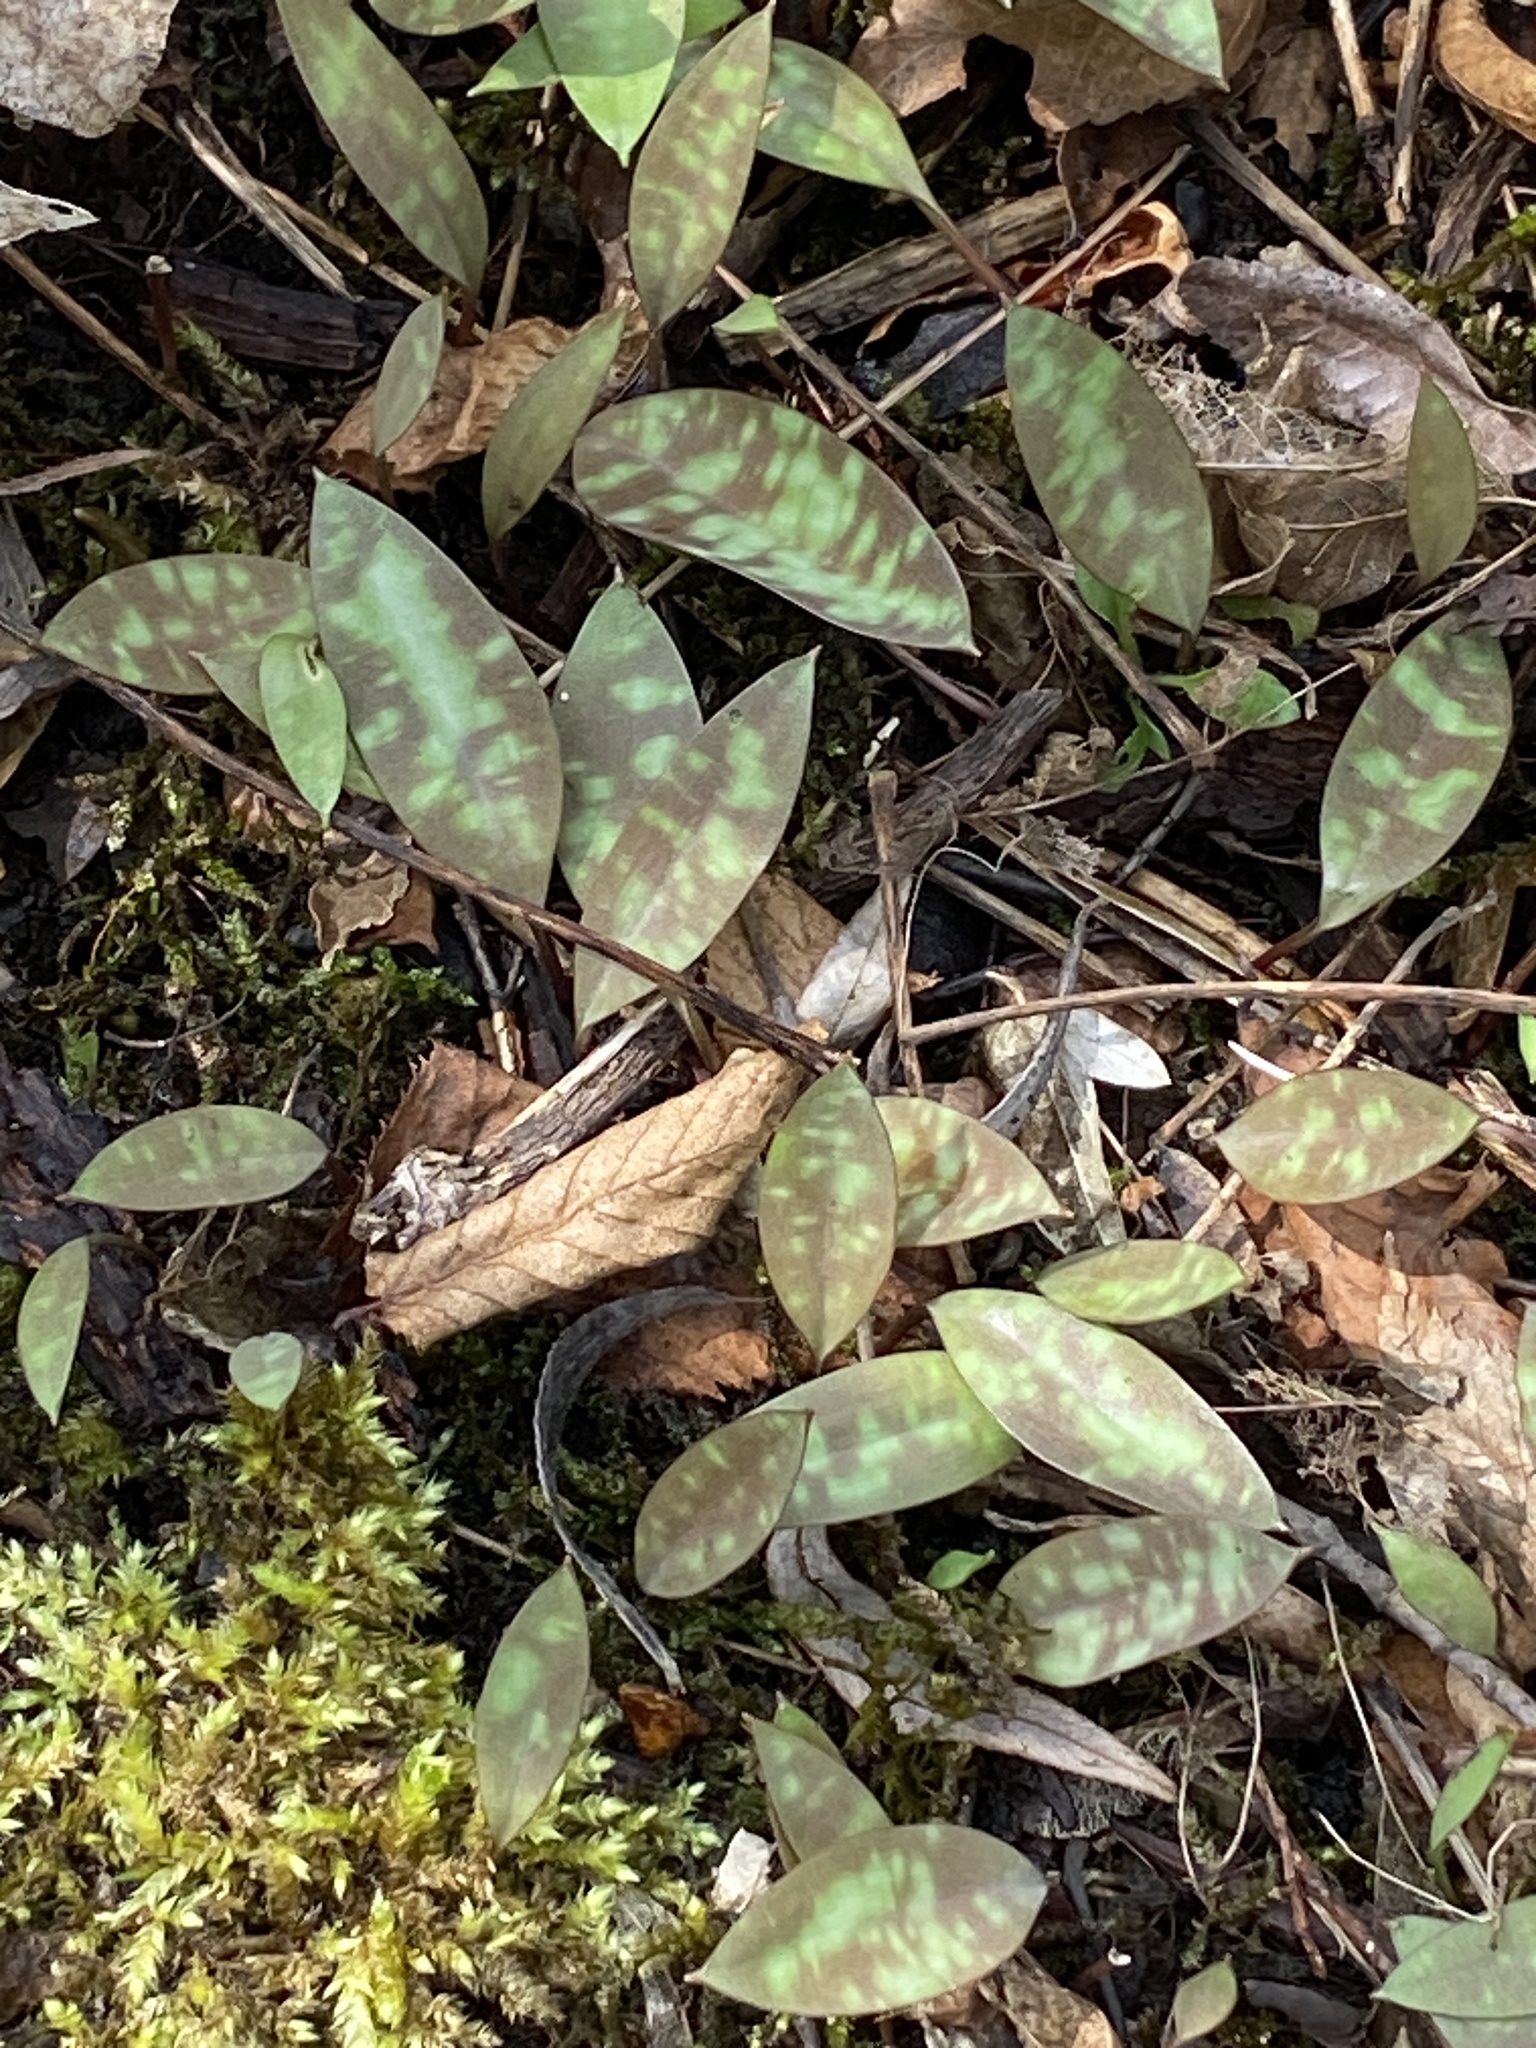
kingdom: Plantae
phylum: Tracheophyta
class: Liliopsida
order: Liliales
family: Liliaceae
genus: Erythronium
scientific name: Erythronium americanum
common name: Yellow adder's-tongue
